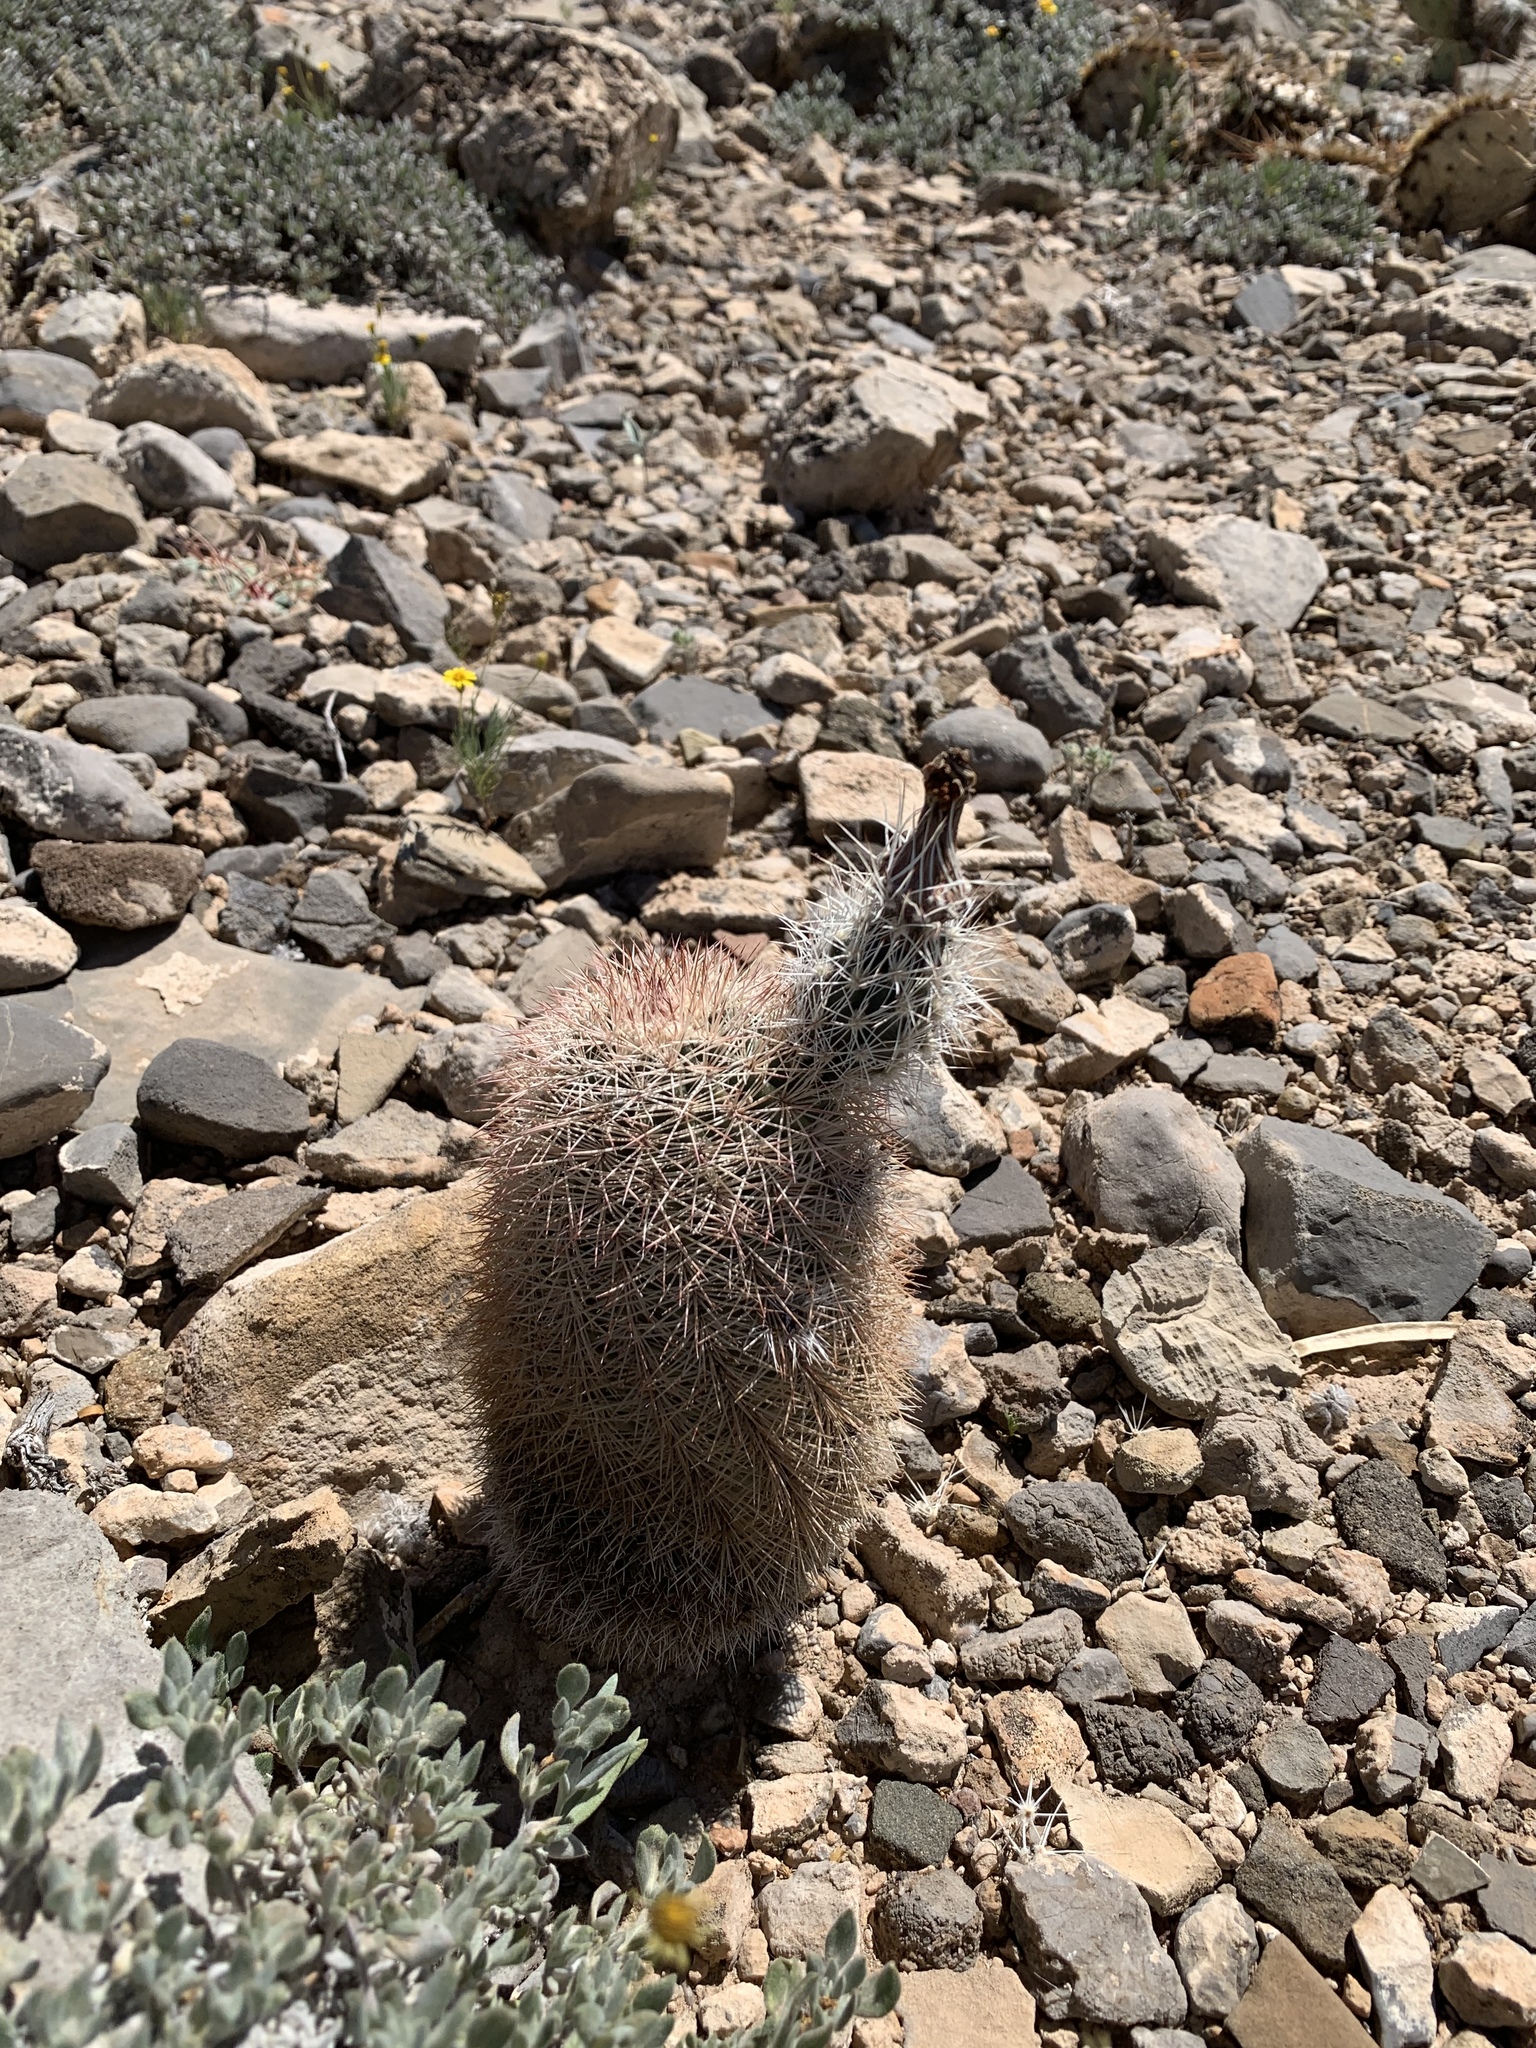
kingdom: Plantae
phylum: Tracheophyta
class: Magnoliopsida
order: Caryophyllales
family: Cactaceae
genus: Echinocereus
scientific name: Echinocereus dasyacanthus
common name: Spiny hedgehog cactus
